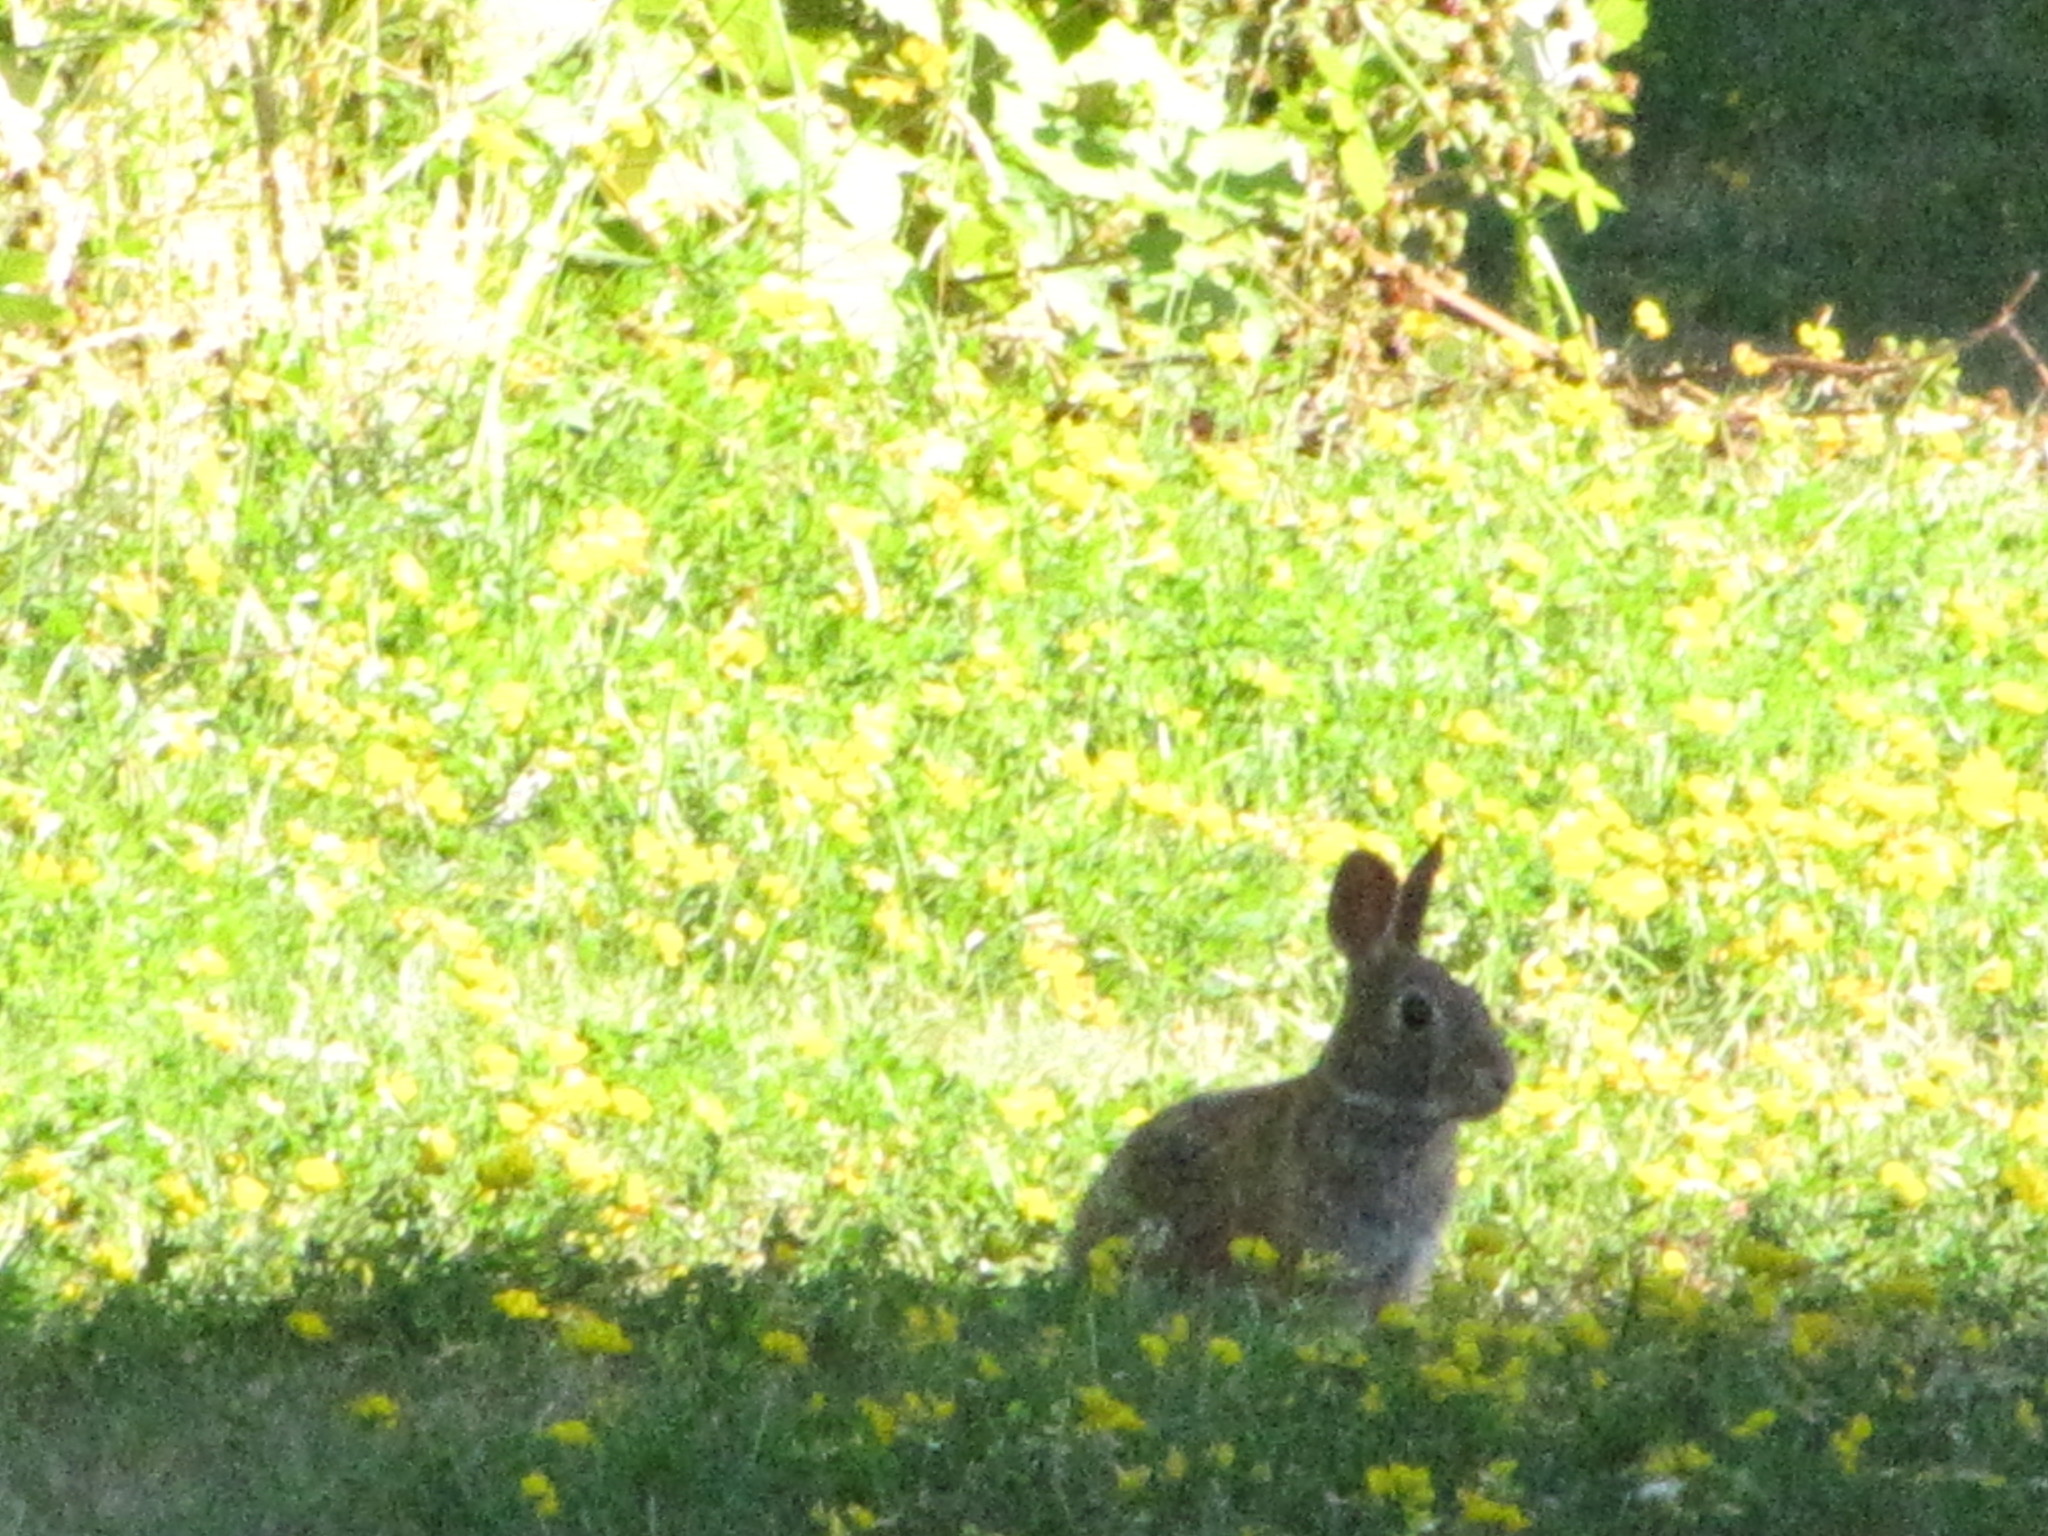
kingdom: Animalia
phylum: Chordata
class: Mammalia
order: Lagomorpha
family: Leporidae
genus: Sylvilagus
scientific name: Sylvilagus floridanus
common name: Eastern cottontail
